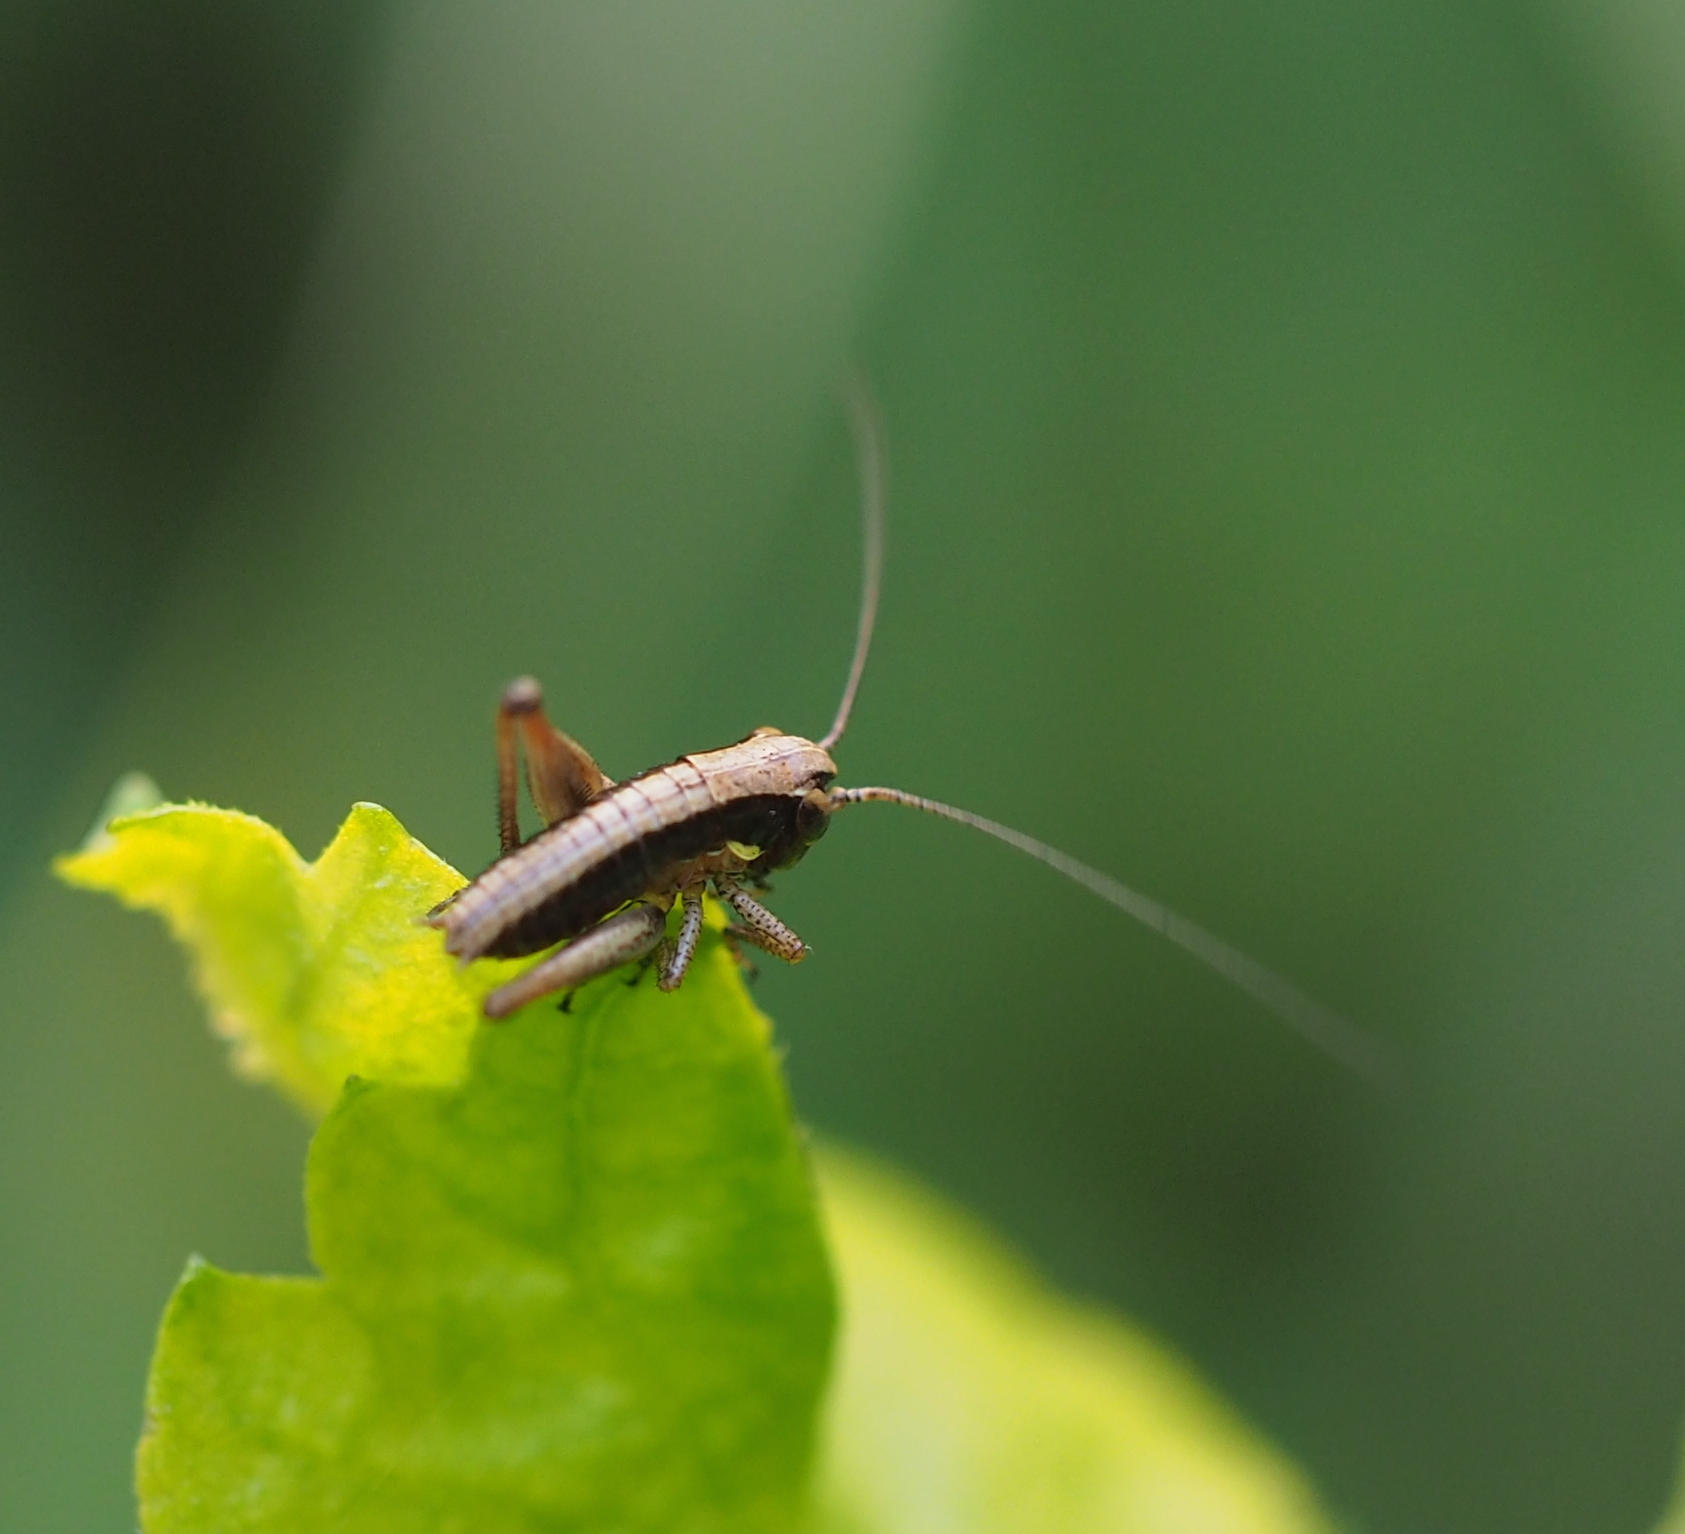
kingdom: Animalia
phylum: Arthropoda
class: Insecta
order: Orthoptera
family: Tettigoniidae
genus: Platycleis
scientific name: Platycleis grisea
